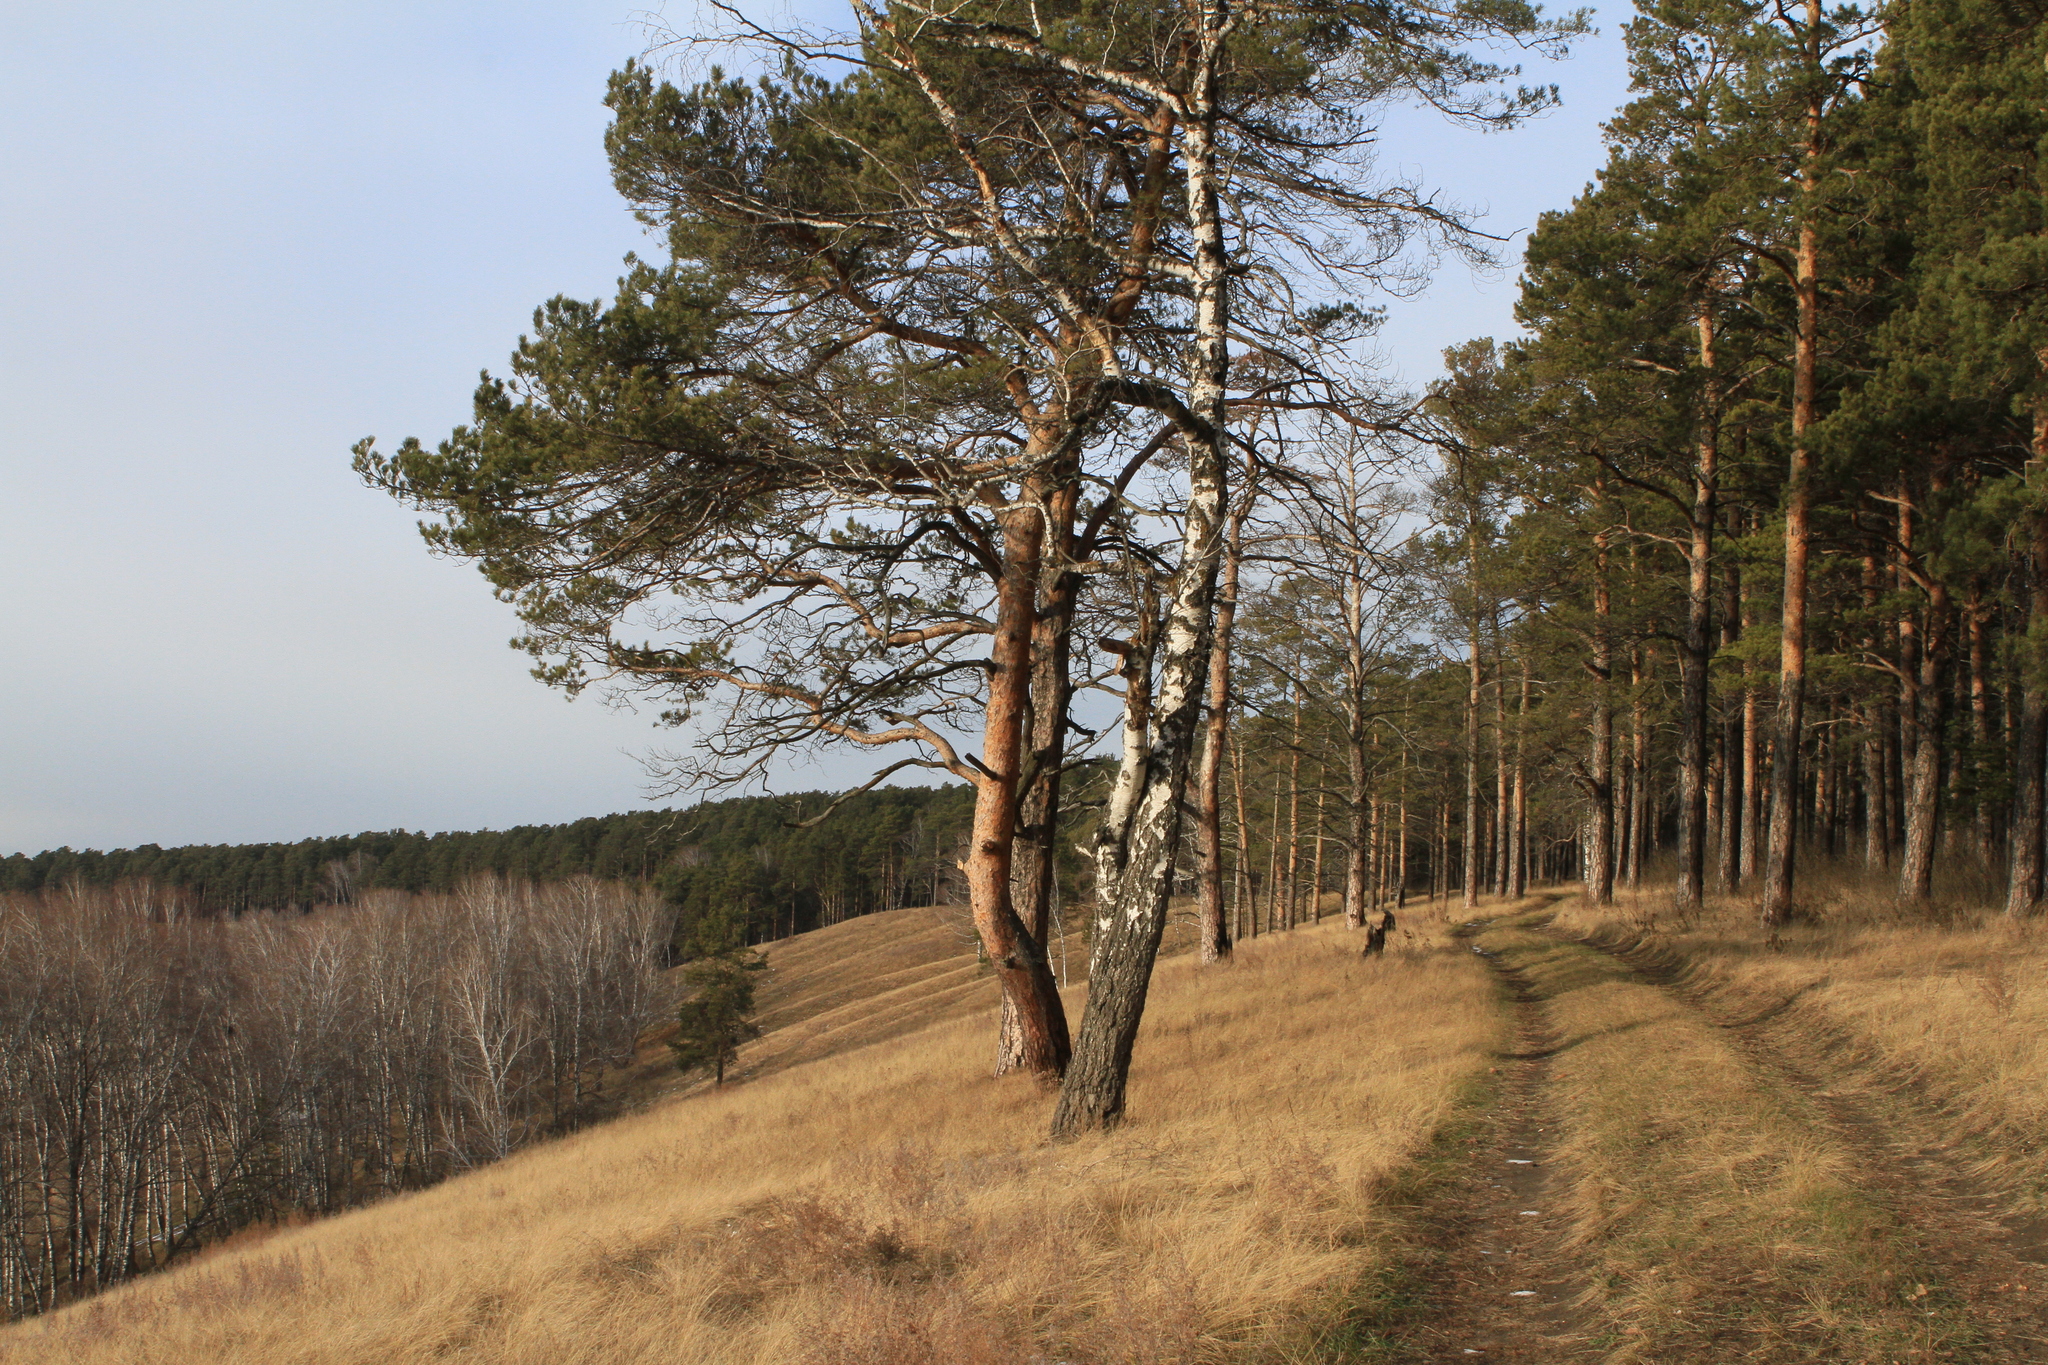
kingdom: Plantae
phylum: Tracheophyta
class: Pinopsida
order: Pinales
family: Pinaceae
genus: Pinus
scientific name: Pinus sylvestris
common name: Scots pine
